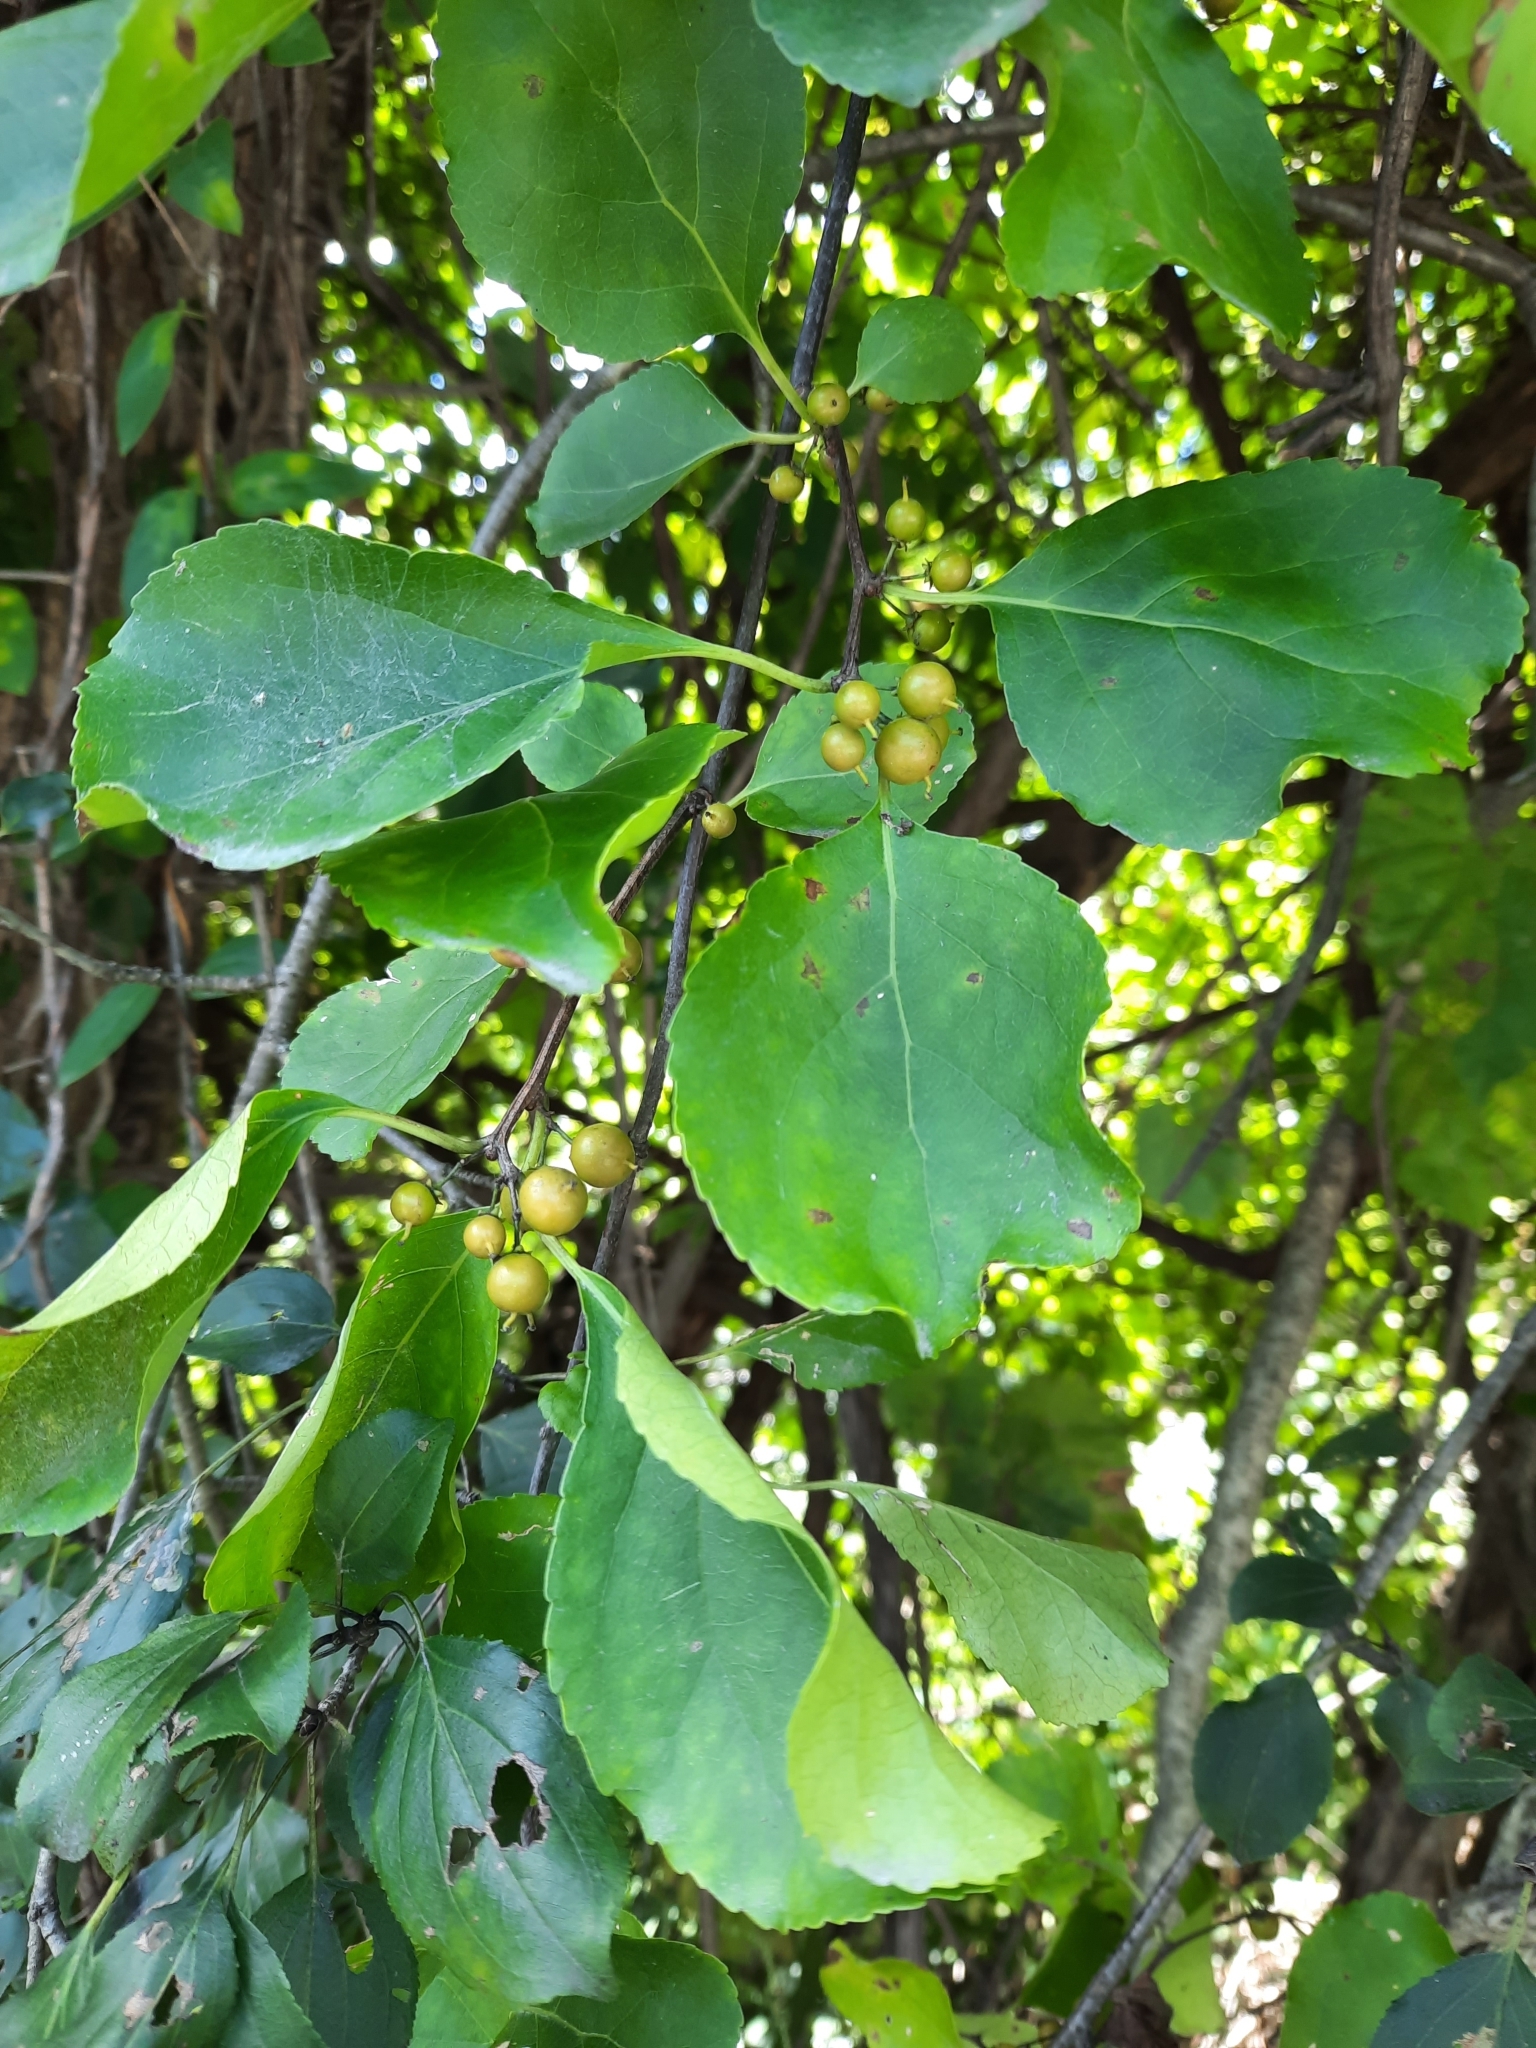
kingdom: Plantae
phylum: Tracheophyta
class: Magnoliopsida
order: Celastrales
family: Celastraceae
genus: Celastrus
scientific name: Celastrus orbiculatus
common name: Oriental bittersweet
